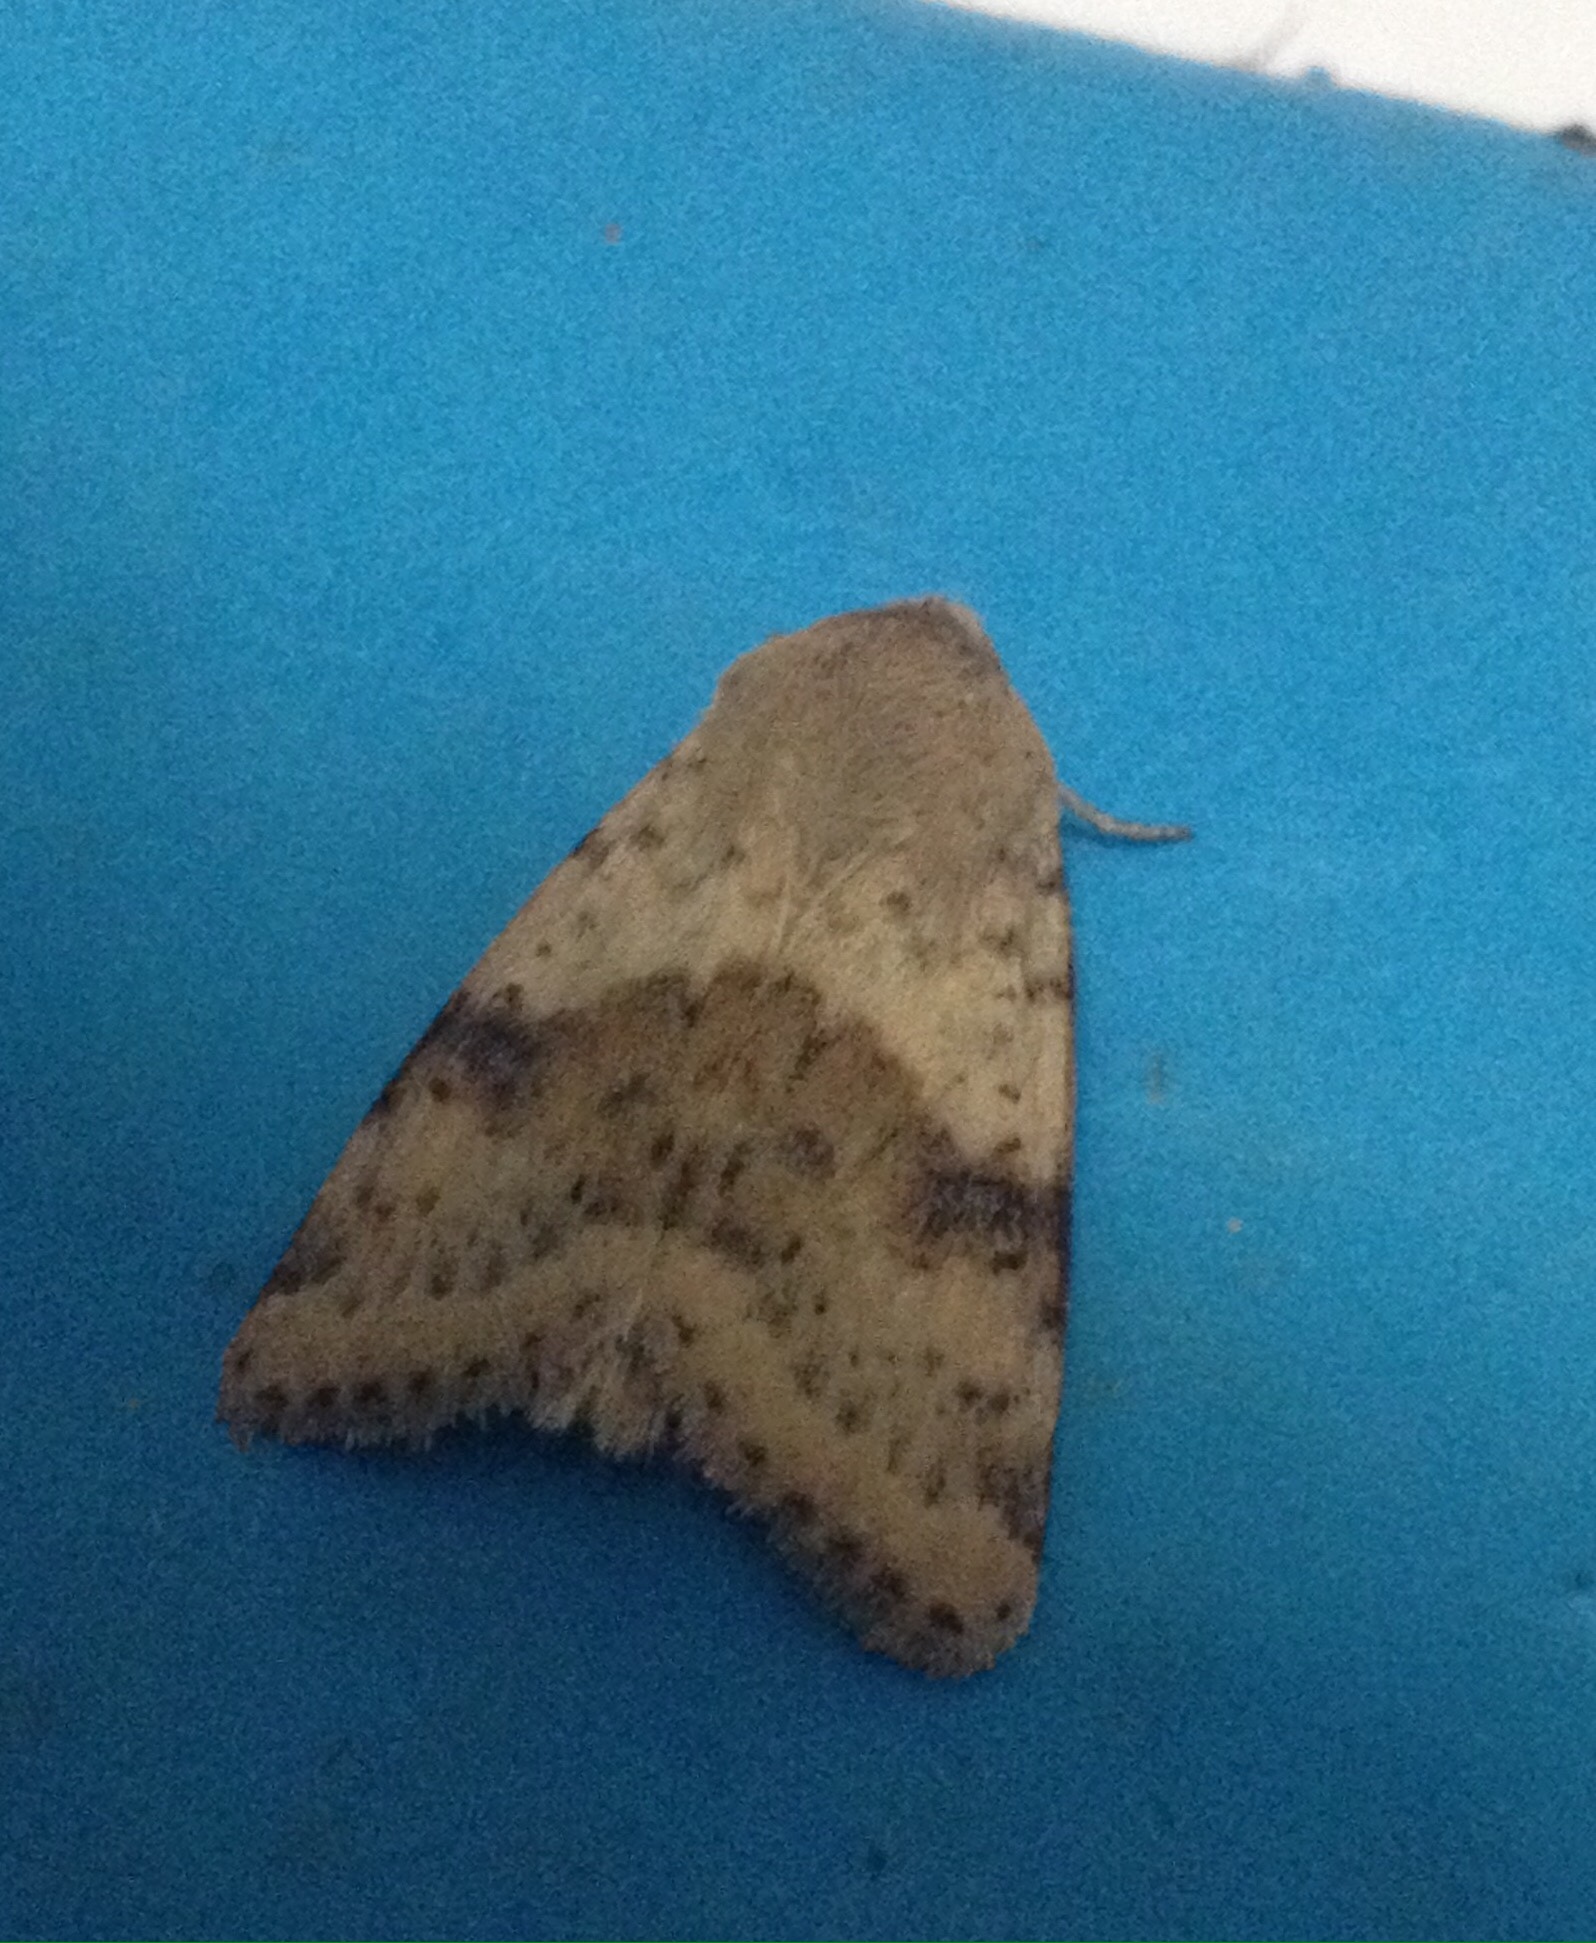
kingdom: Animalia
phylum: Arthropoda
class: Insecta
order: Lepidoptera
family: Noctuidae
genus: Heliothis
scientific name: Heliothis viriplaca
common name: Marbled clover
